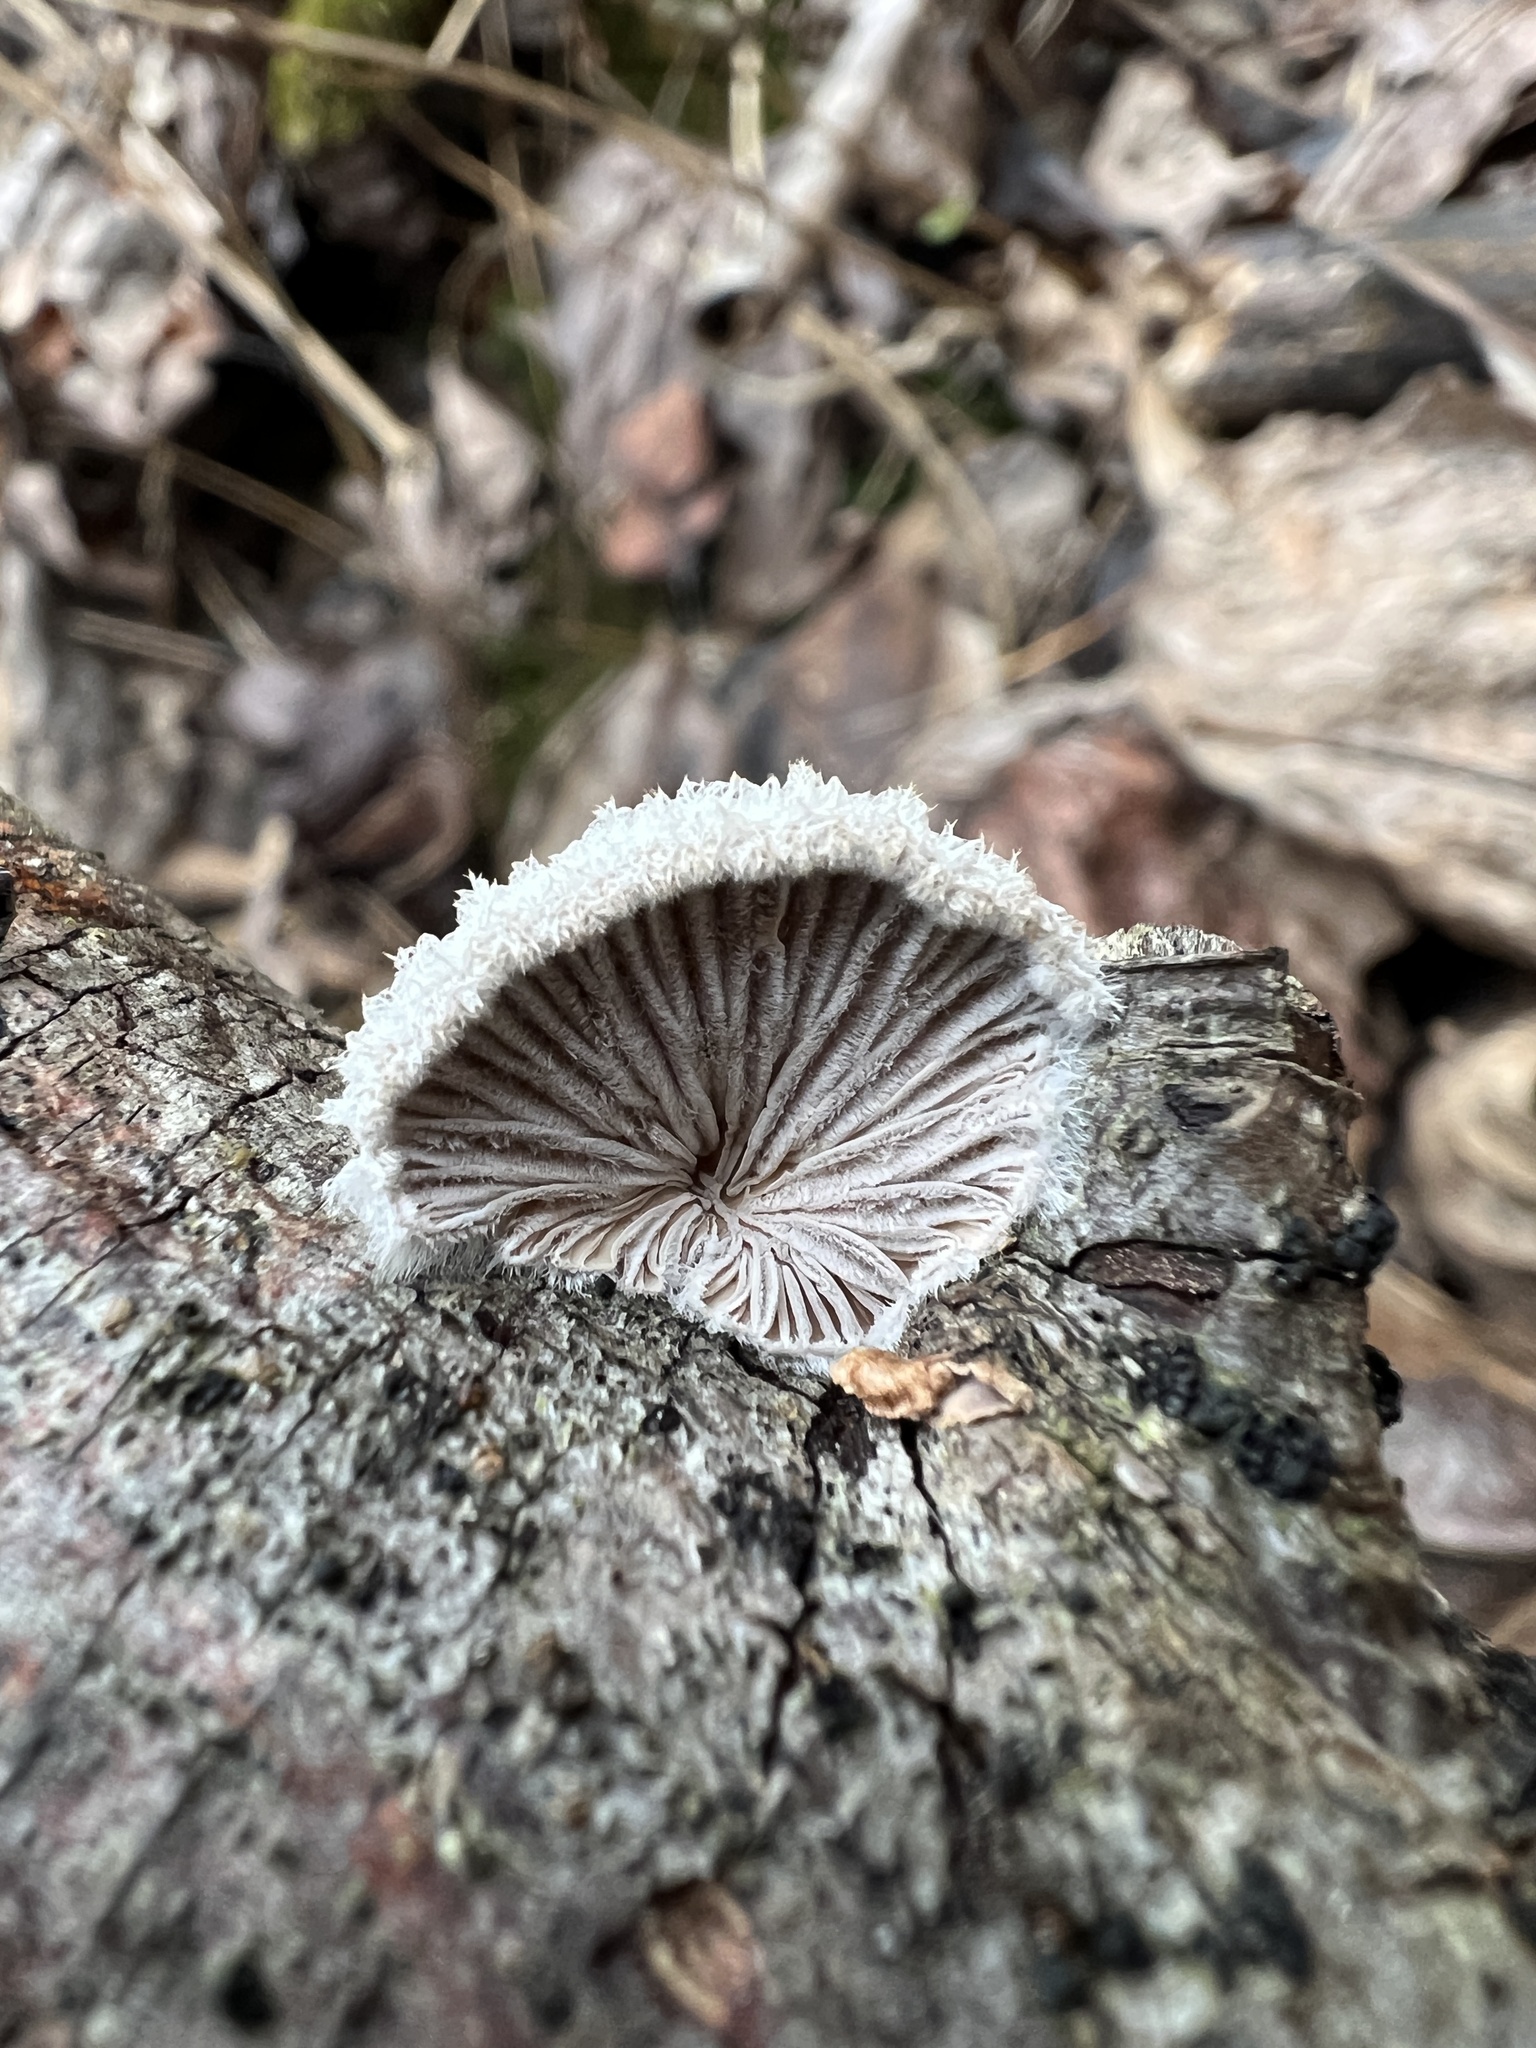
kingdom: Fungi
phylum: Basidiomycota
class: Agaricomycetes
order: Agaricales
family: Schizophyllaceae
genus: Schizophyllum
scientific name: Schizophyllum commune
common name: Common porecrust
